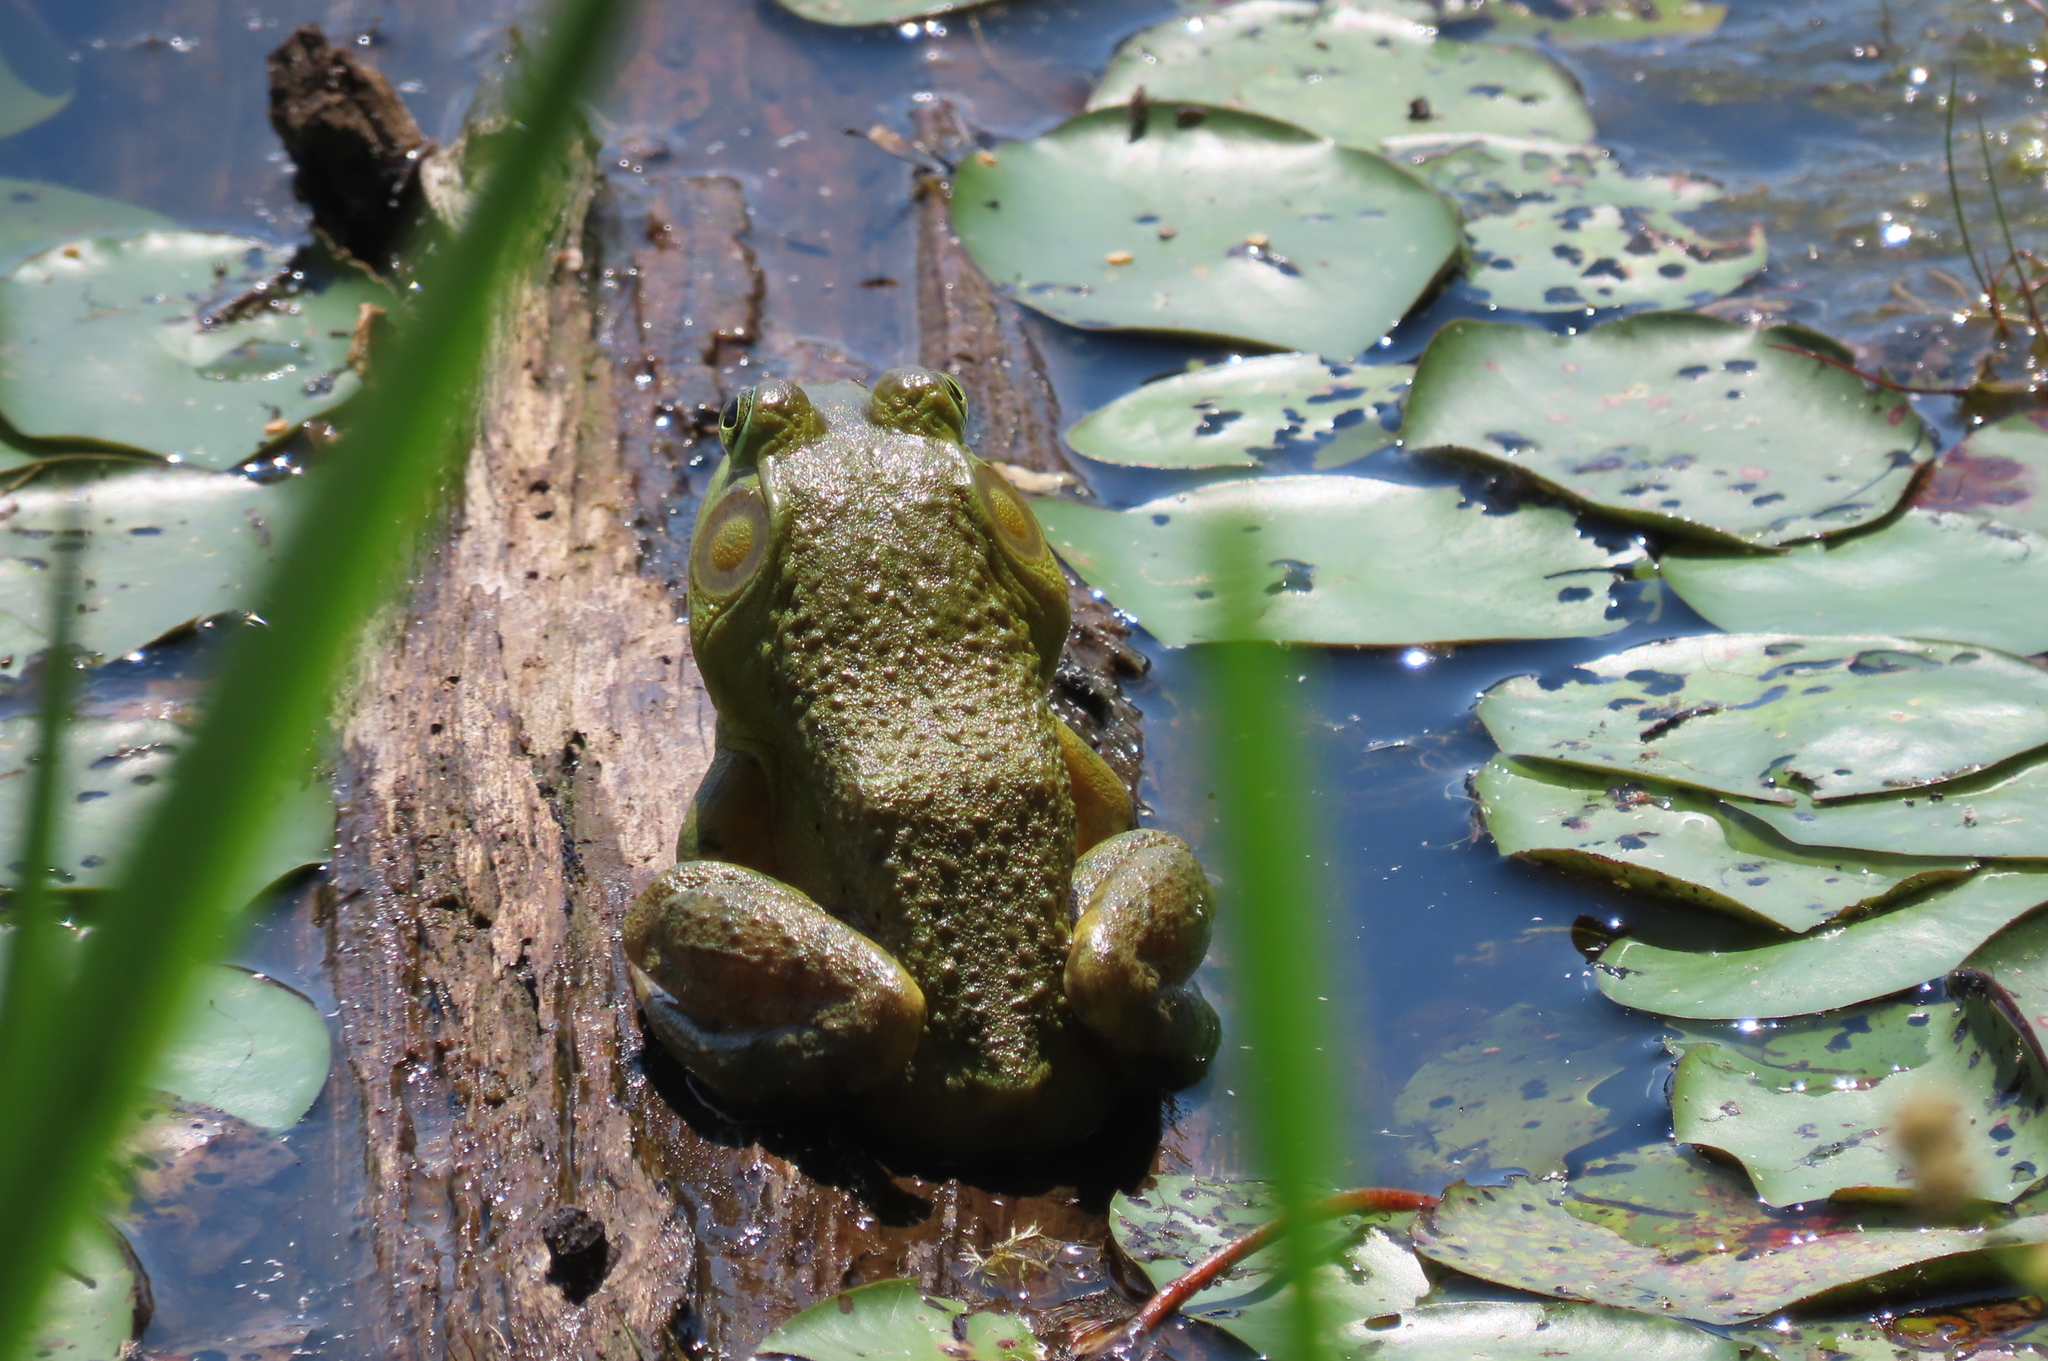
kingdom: Animalia
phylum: Chordata
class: Amphibia
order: Anura
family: Ranidae
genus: Lithobates
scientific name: Lithobates catesbeianus
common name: American bullfrog
